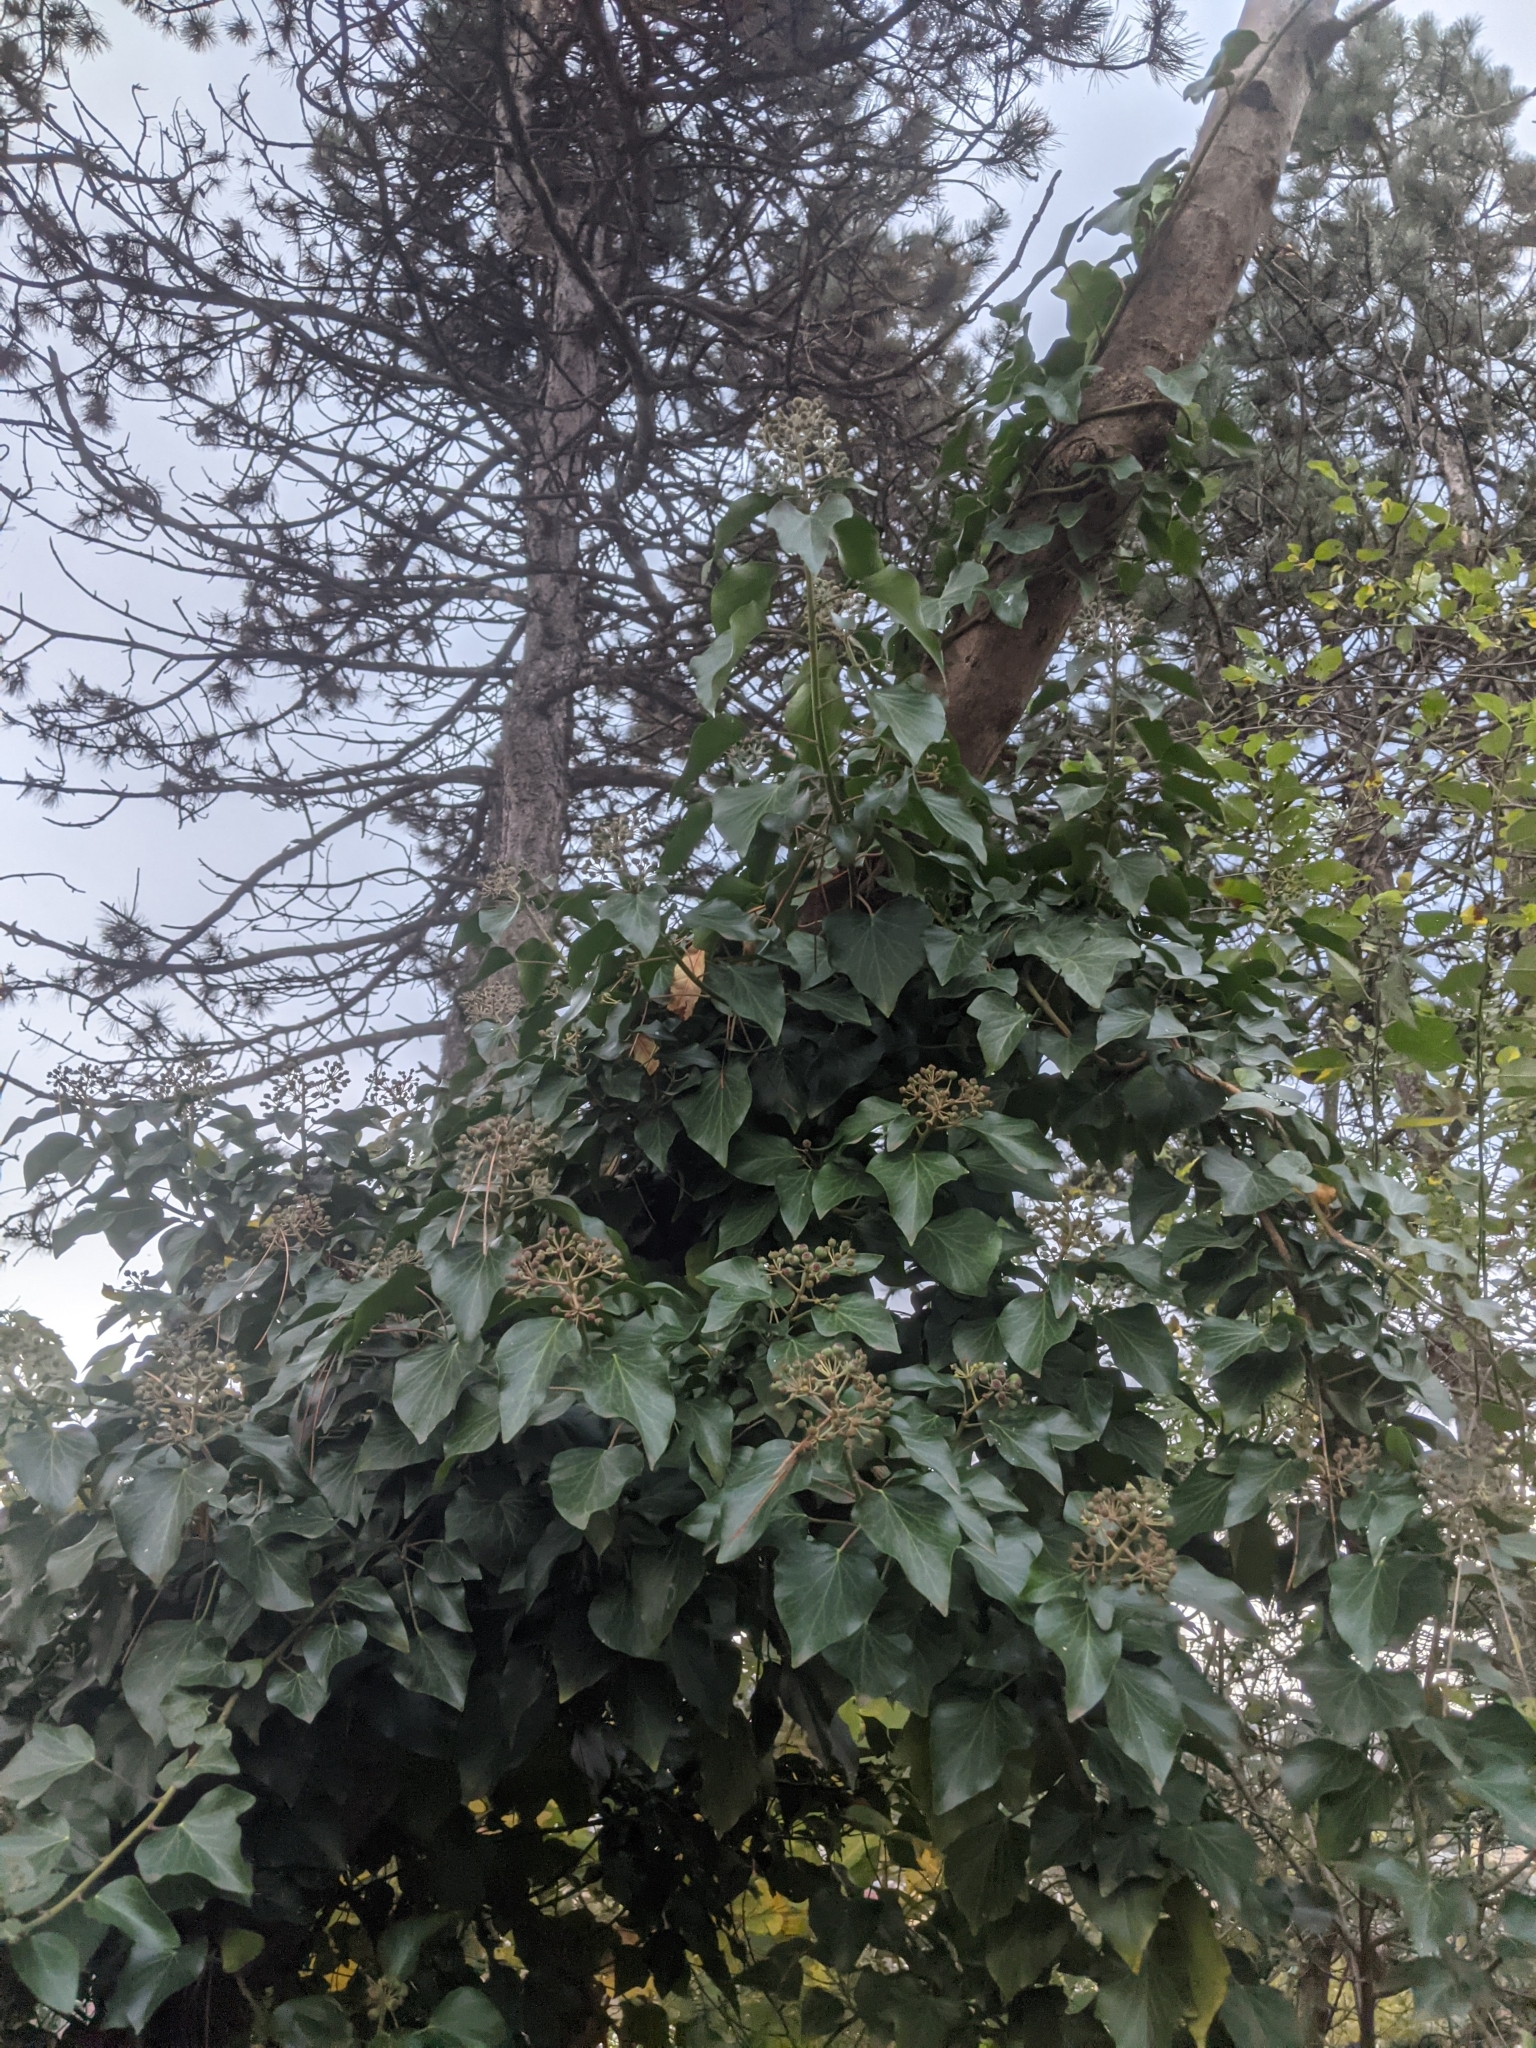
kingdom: Plantae
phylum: Tracheophyta
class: Magnoliopsida
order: Apiales
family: Araliaceae
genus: Hedera
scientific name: Hedera helix
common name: Ivy
